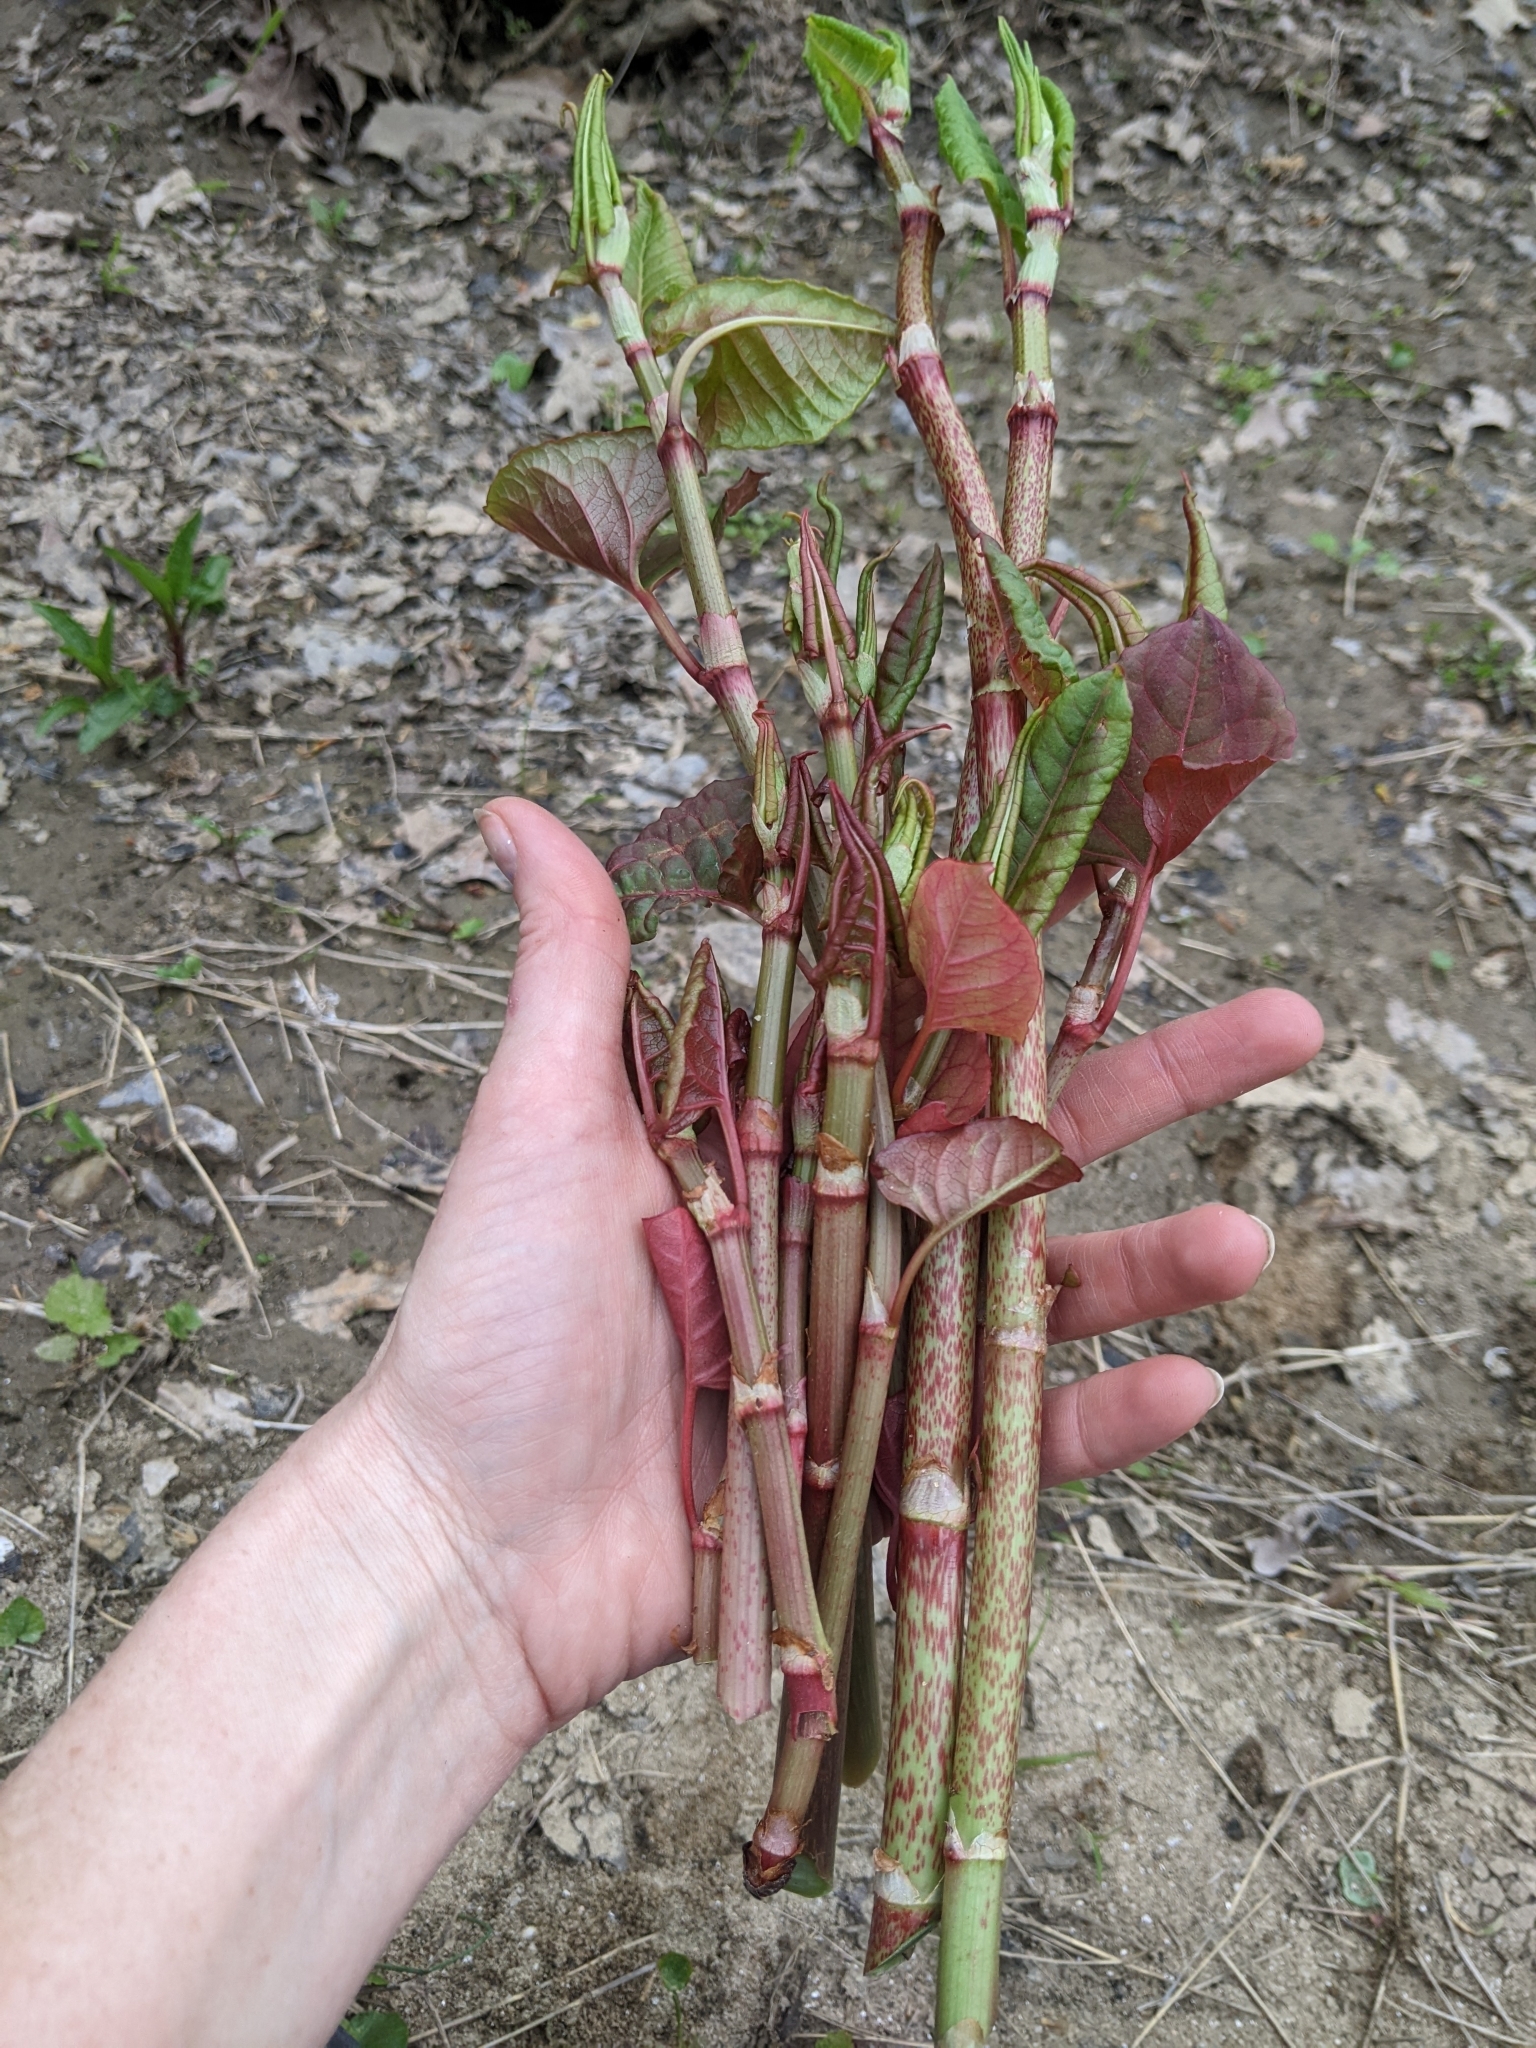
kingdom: Plantae
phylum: Tracheophyta
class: Magnoliopsida
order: Caryophyllales
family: Polygonaceae
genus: Reynoutria
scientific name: Reynoutria japonica
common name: Japanese knotweed
